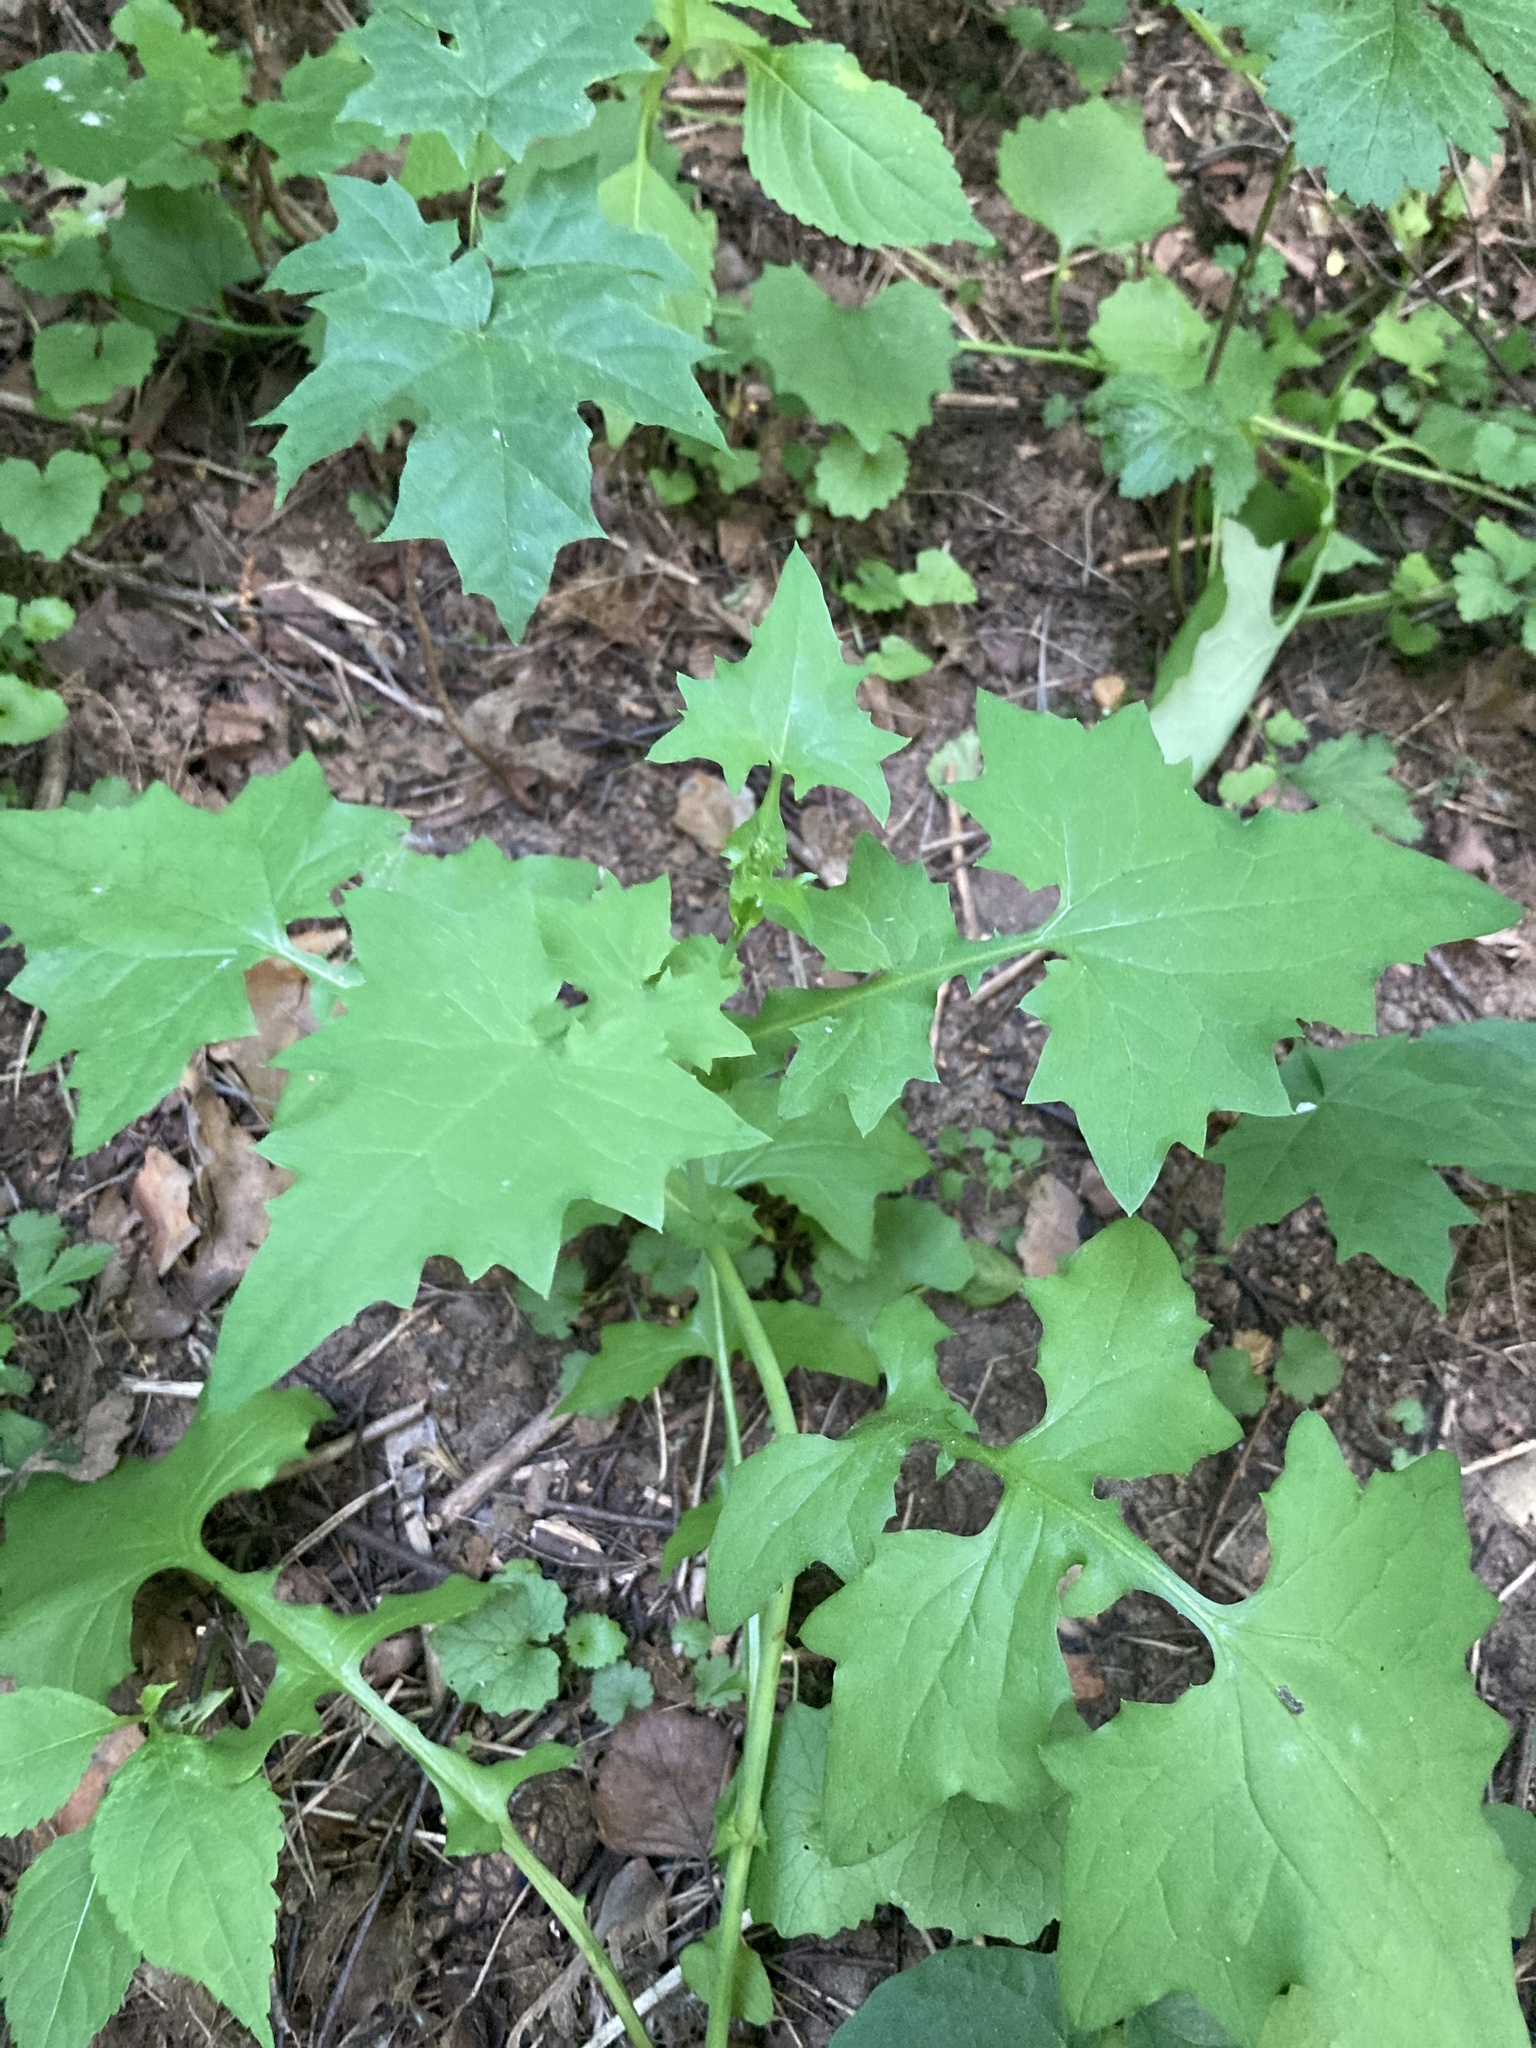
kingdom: Plantae
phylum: Tracheophyta
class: Magnoliopsida
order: Asterales
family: Asteraceae
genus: Mycelis
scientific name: Mycelis muralis
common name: Wall lettuce
